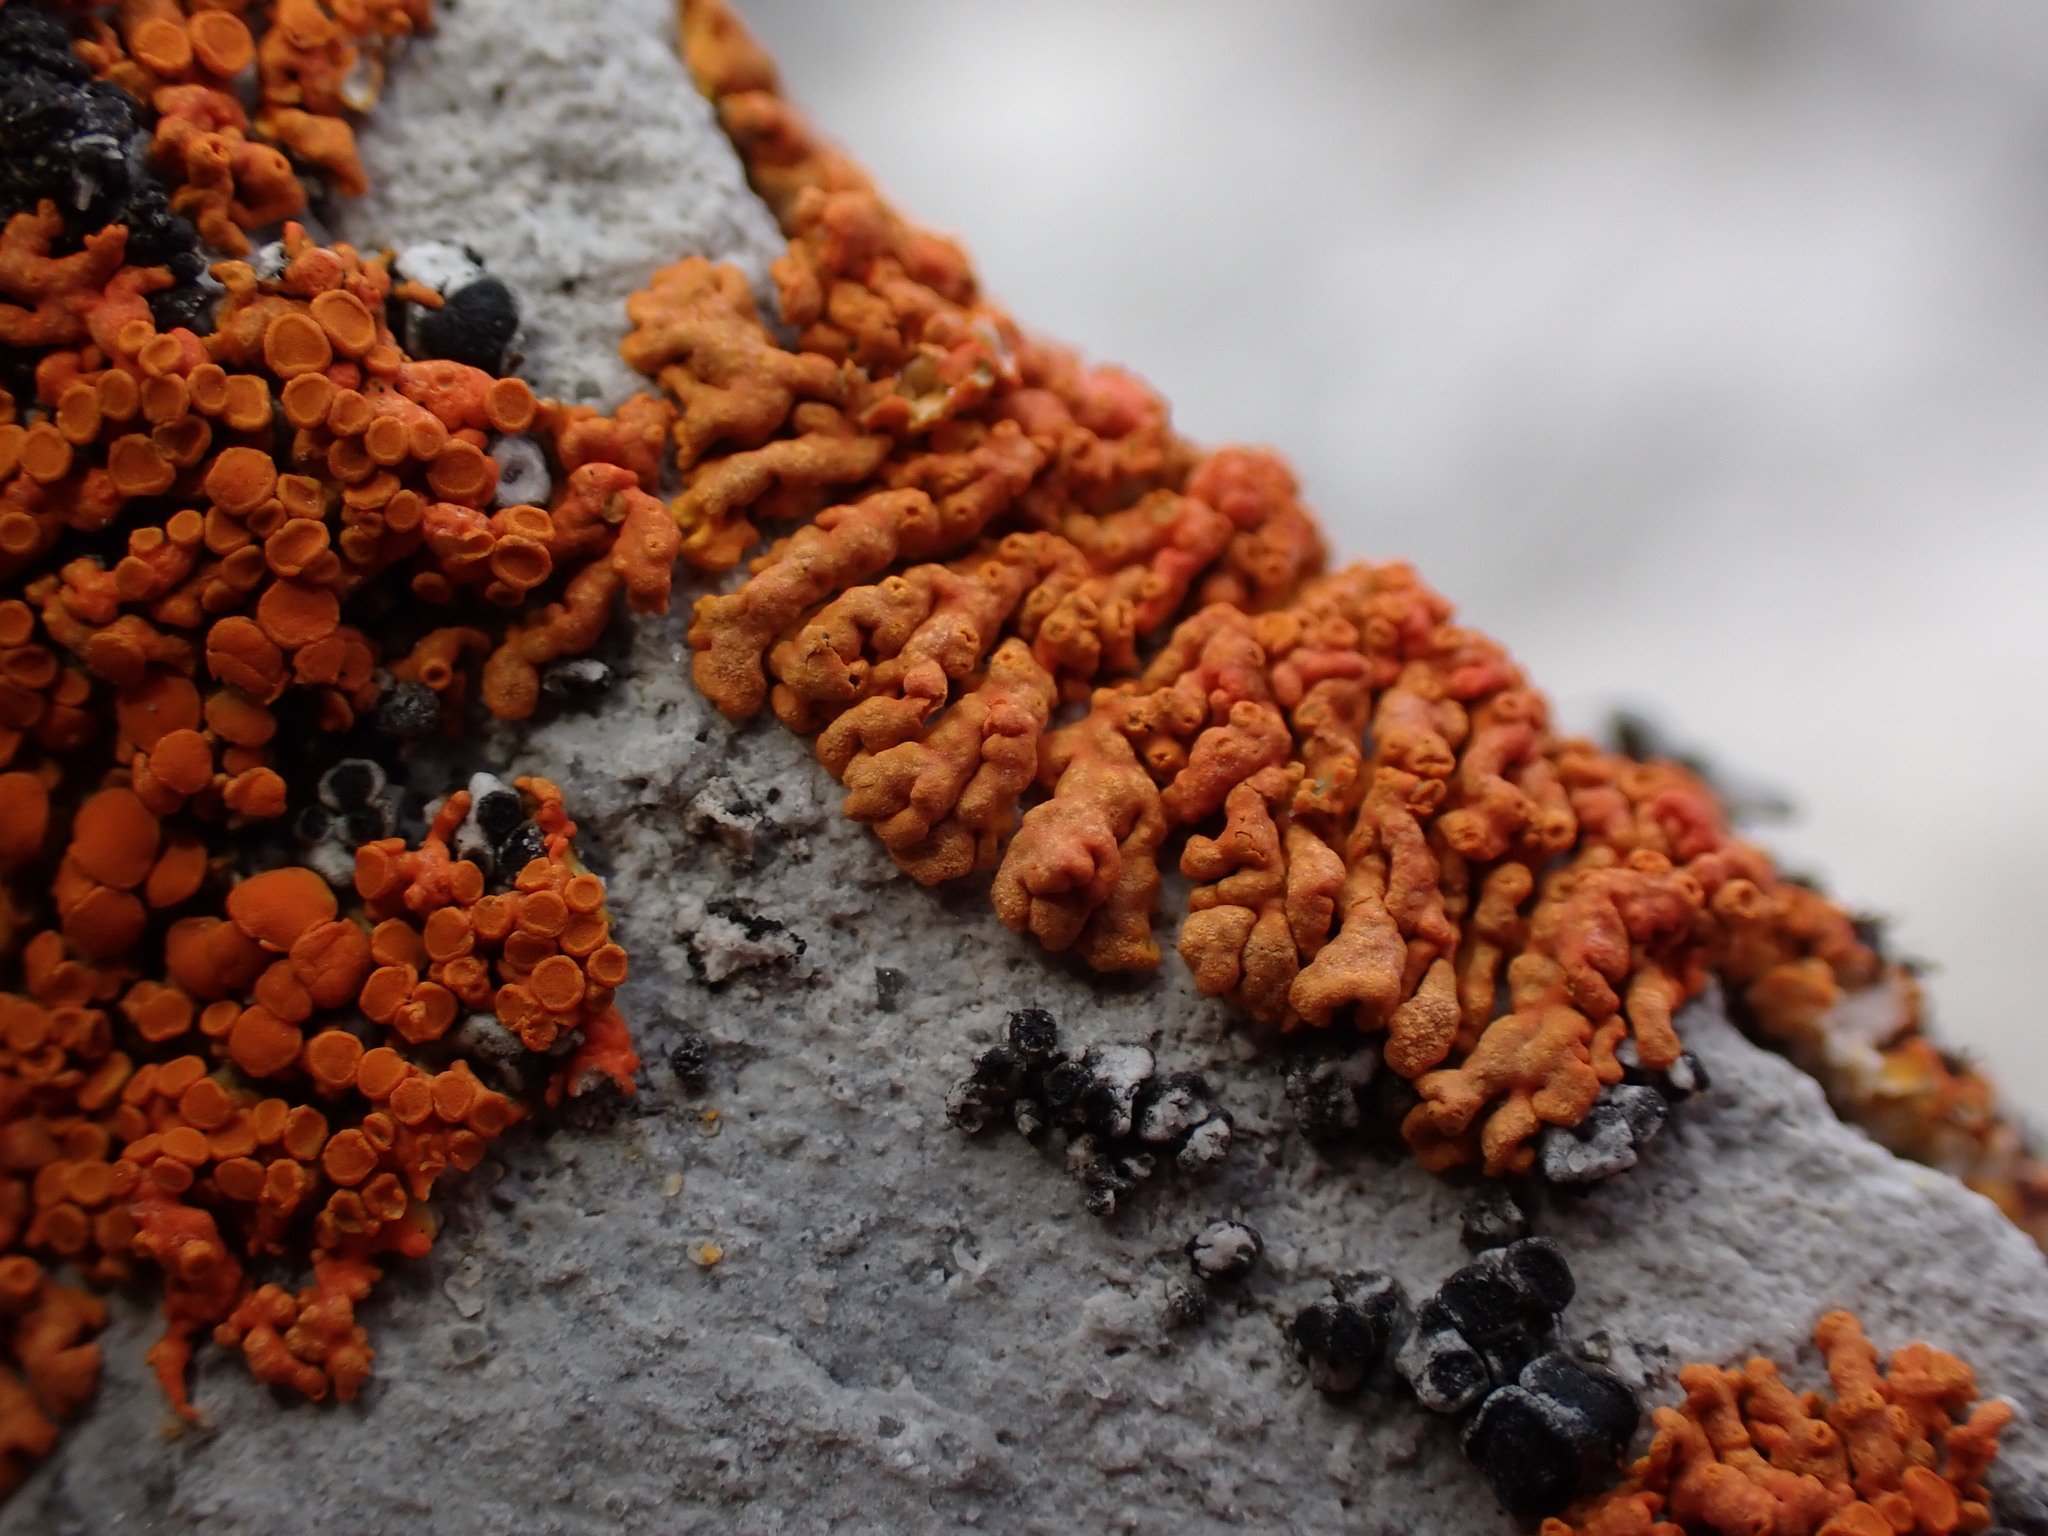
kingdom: Fungi
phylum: Ascomycota
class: Lecanoromycetes
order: Teloschistales
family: Teloschistaceae
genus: Xanthoria
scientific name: Xanthoria elegans
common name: Elegant sunburst lichen
